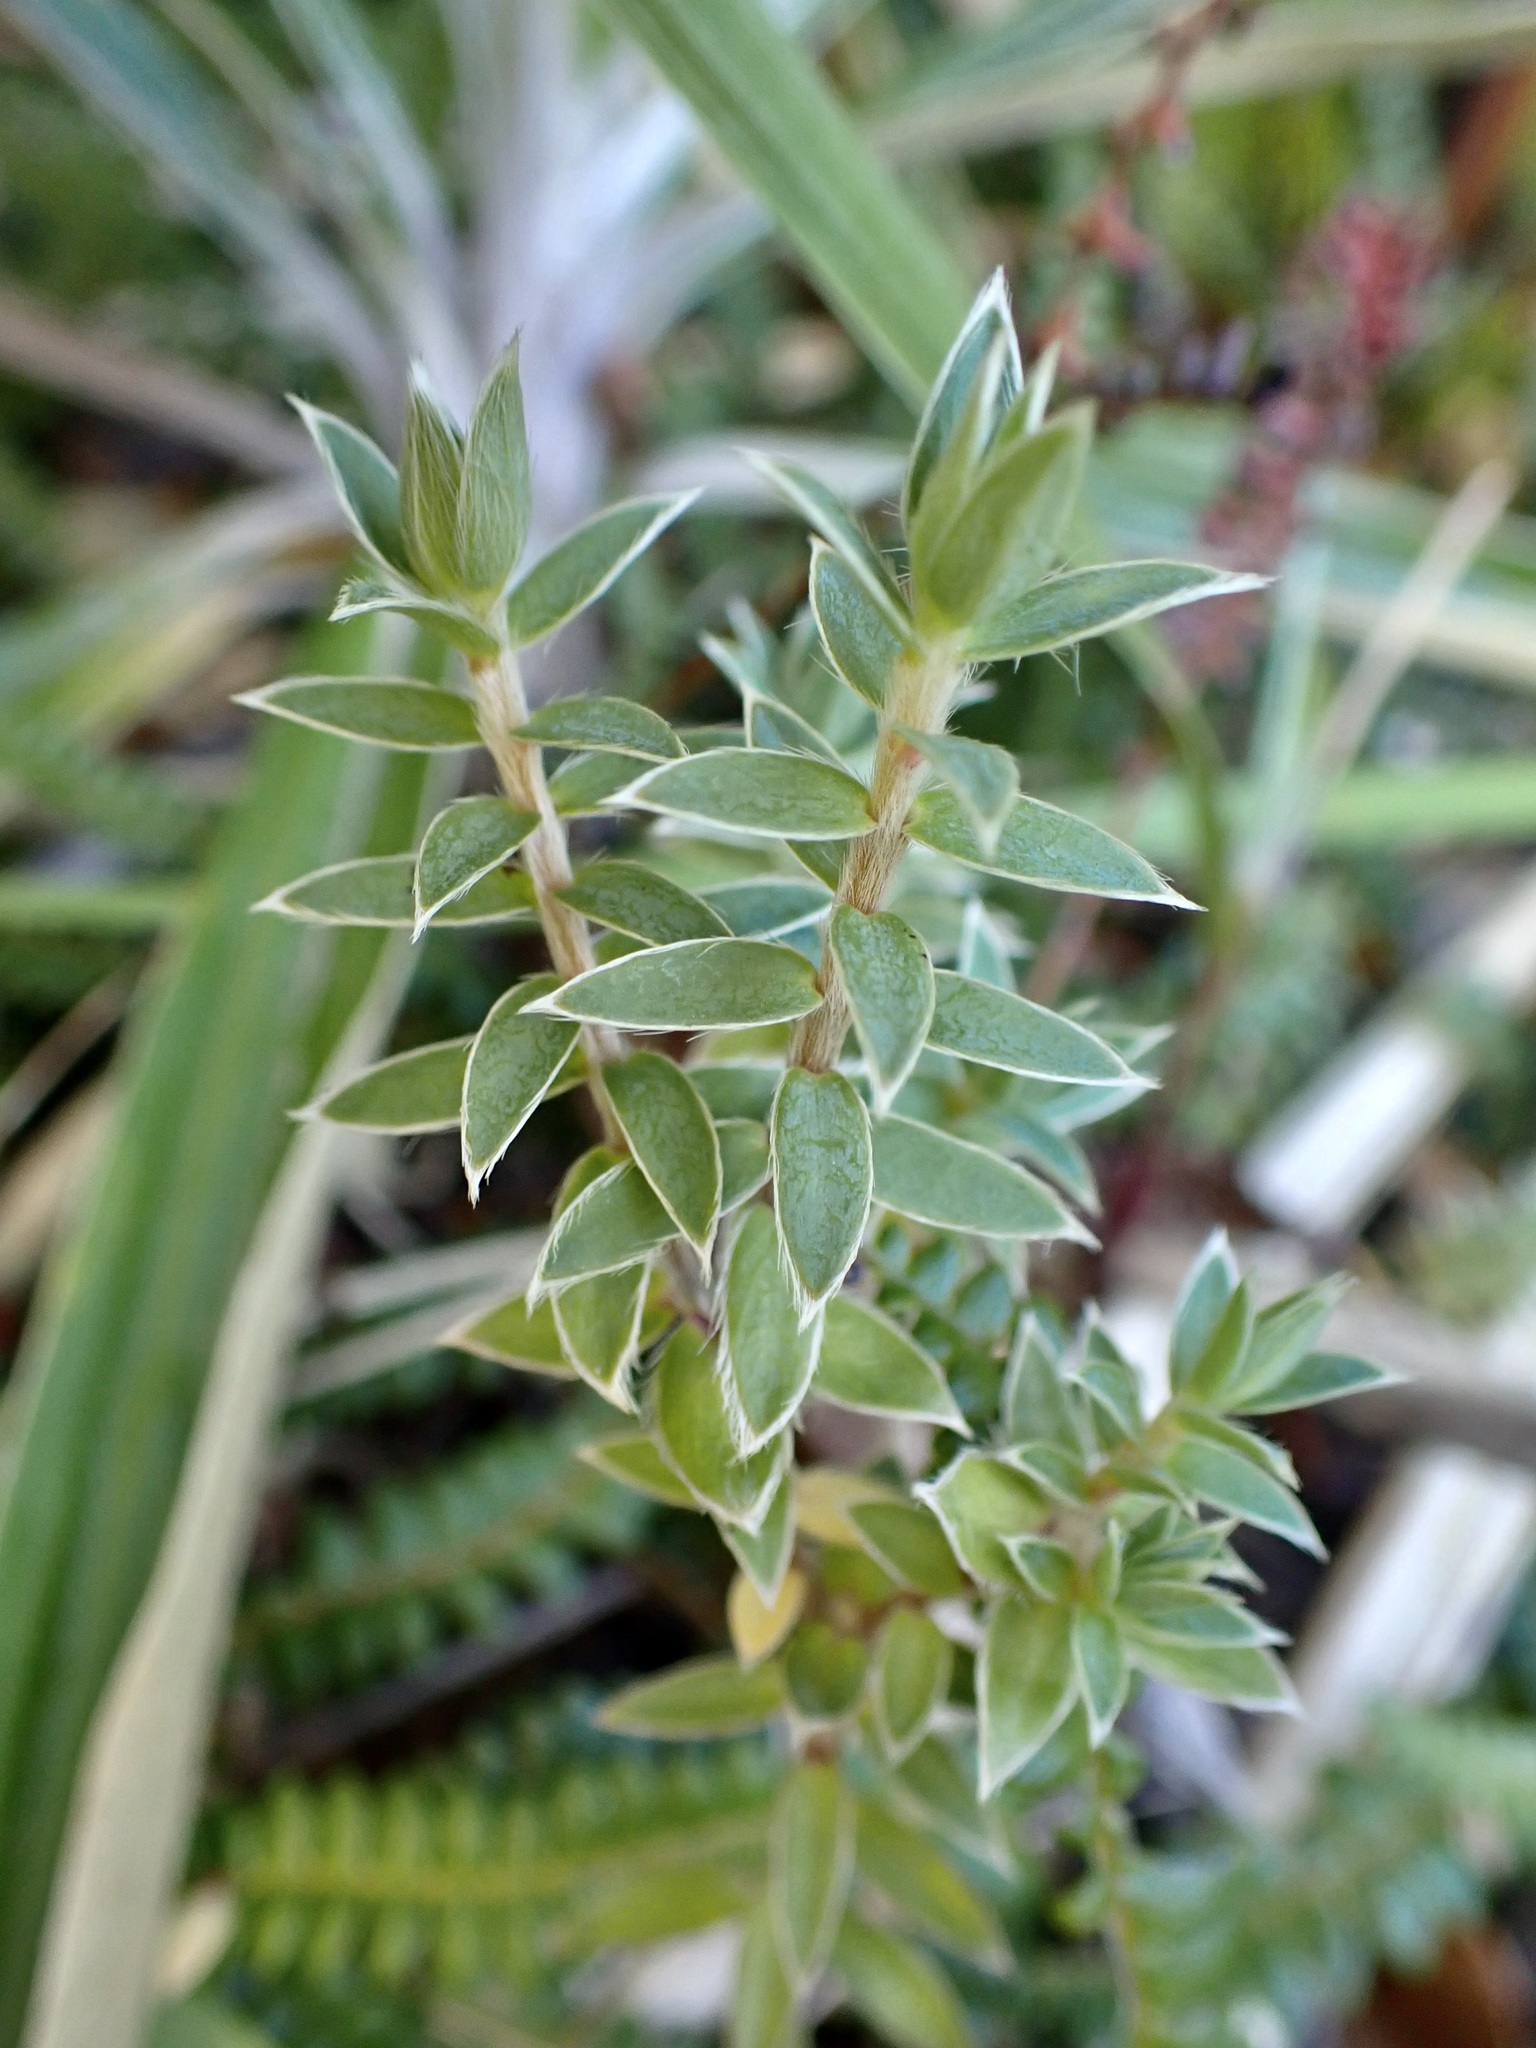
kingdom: Plantae
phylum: Tracheophyta
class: Magnoliopsida
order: Malvales
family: Thymelaeaceae
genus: Pimelea
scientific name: Pimelea pseudolyallii
